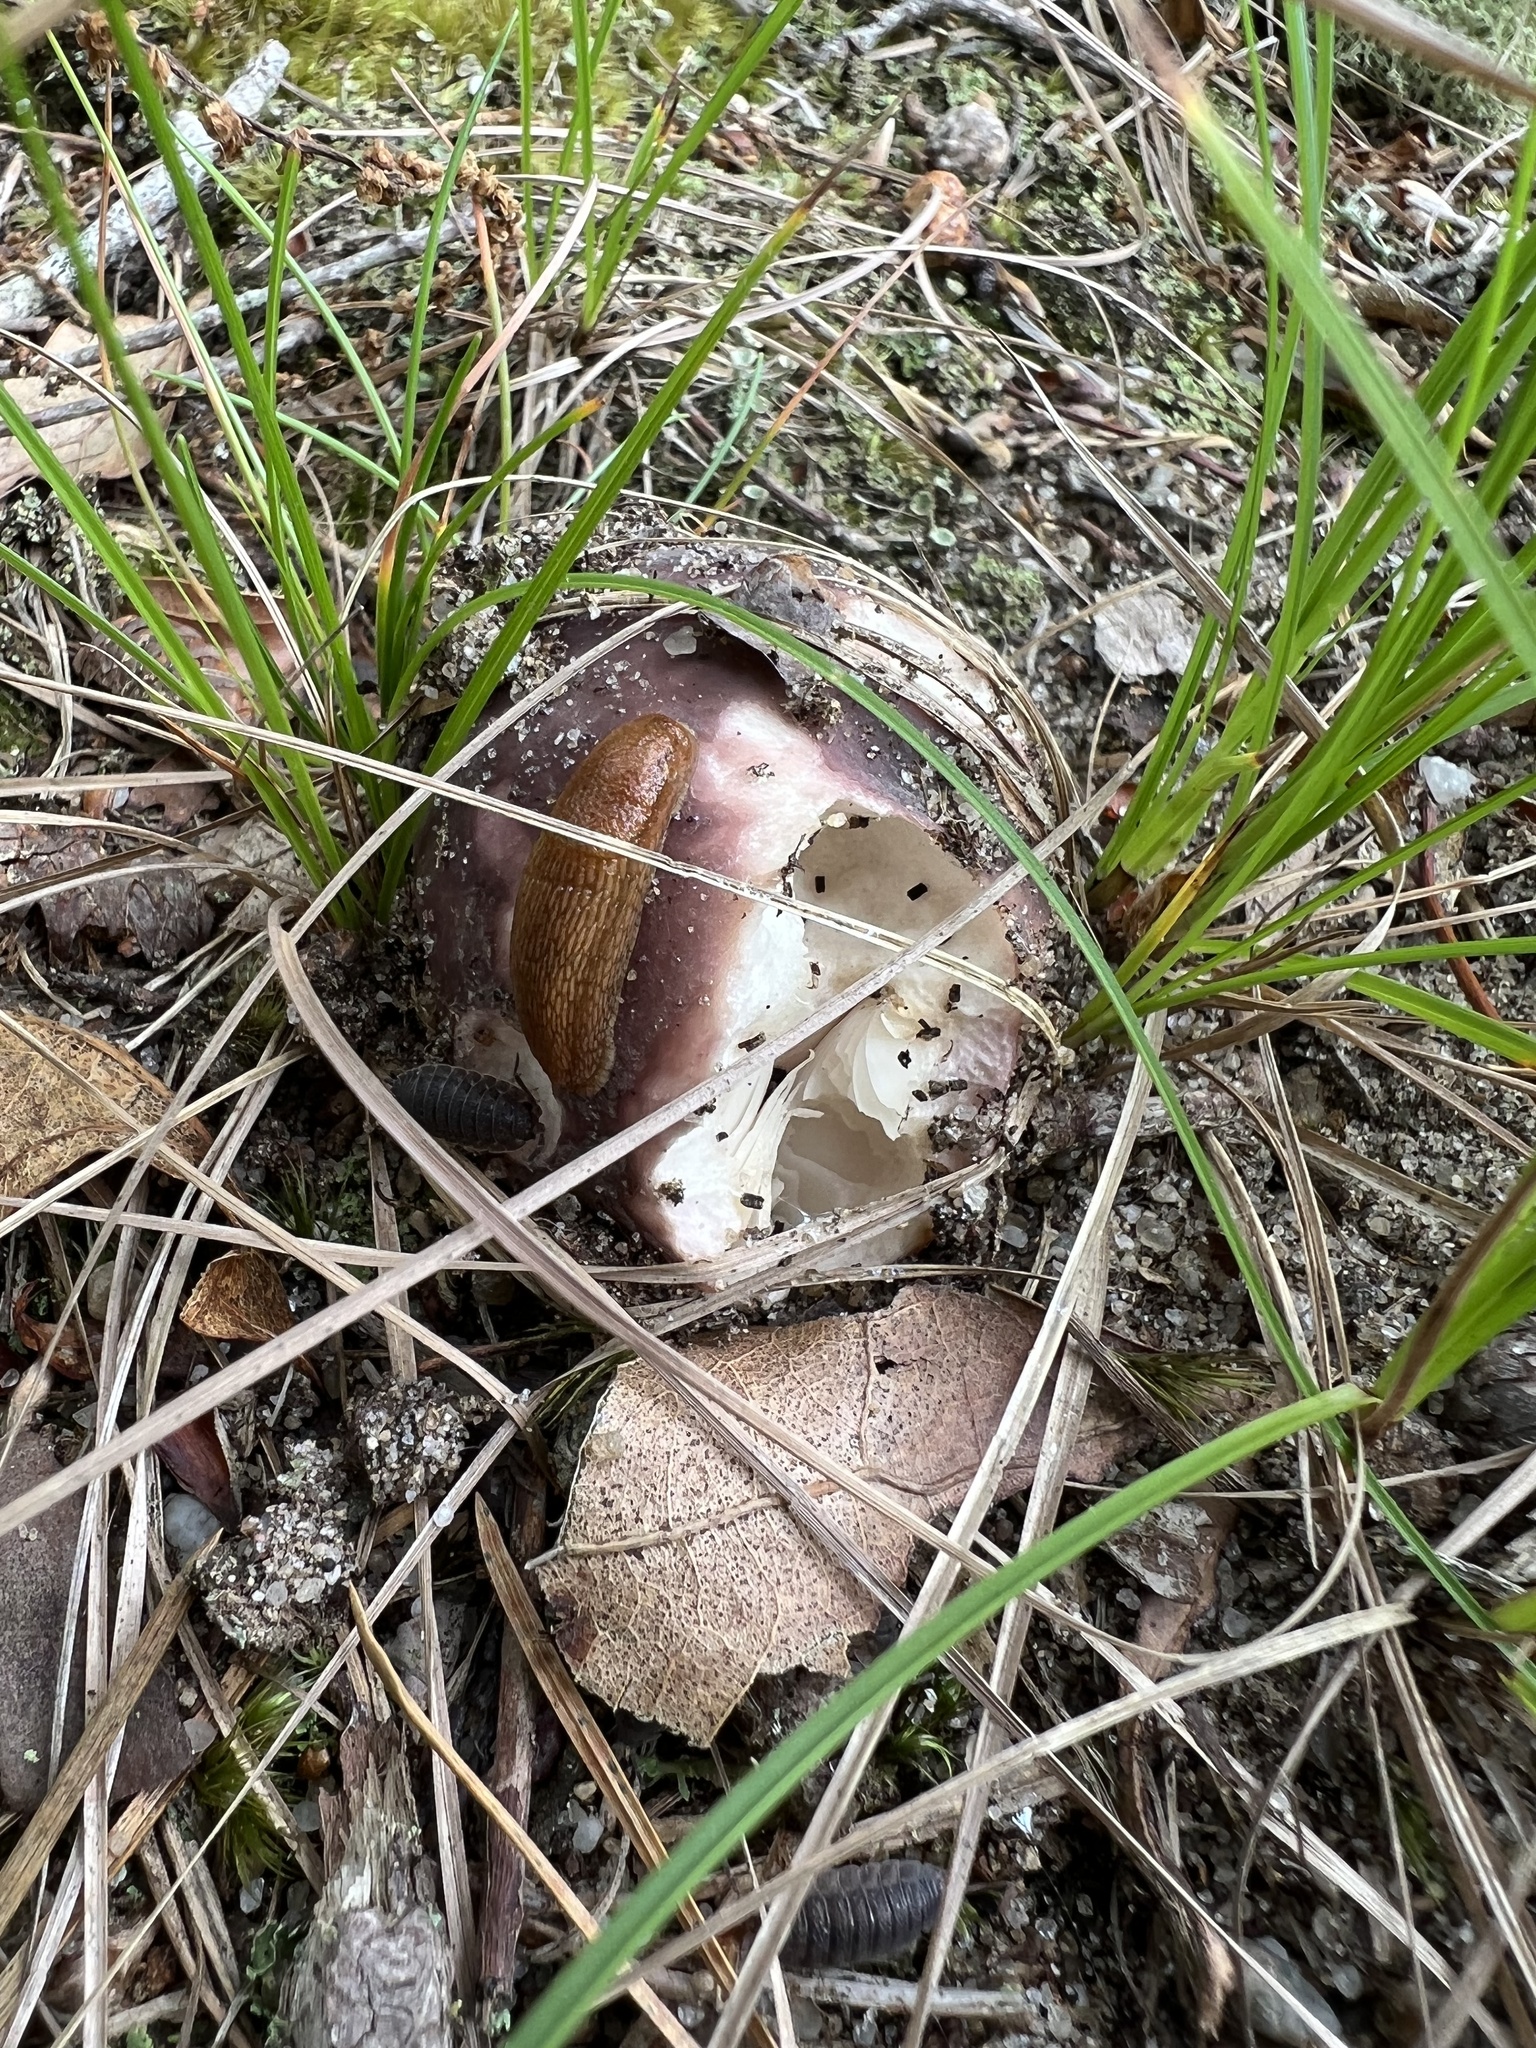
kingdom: Fungi
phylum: Basidiomycota
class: Agaricomycetes
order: Russulales
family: Russulaceae
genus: Russula
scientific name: Russula
